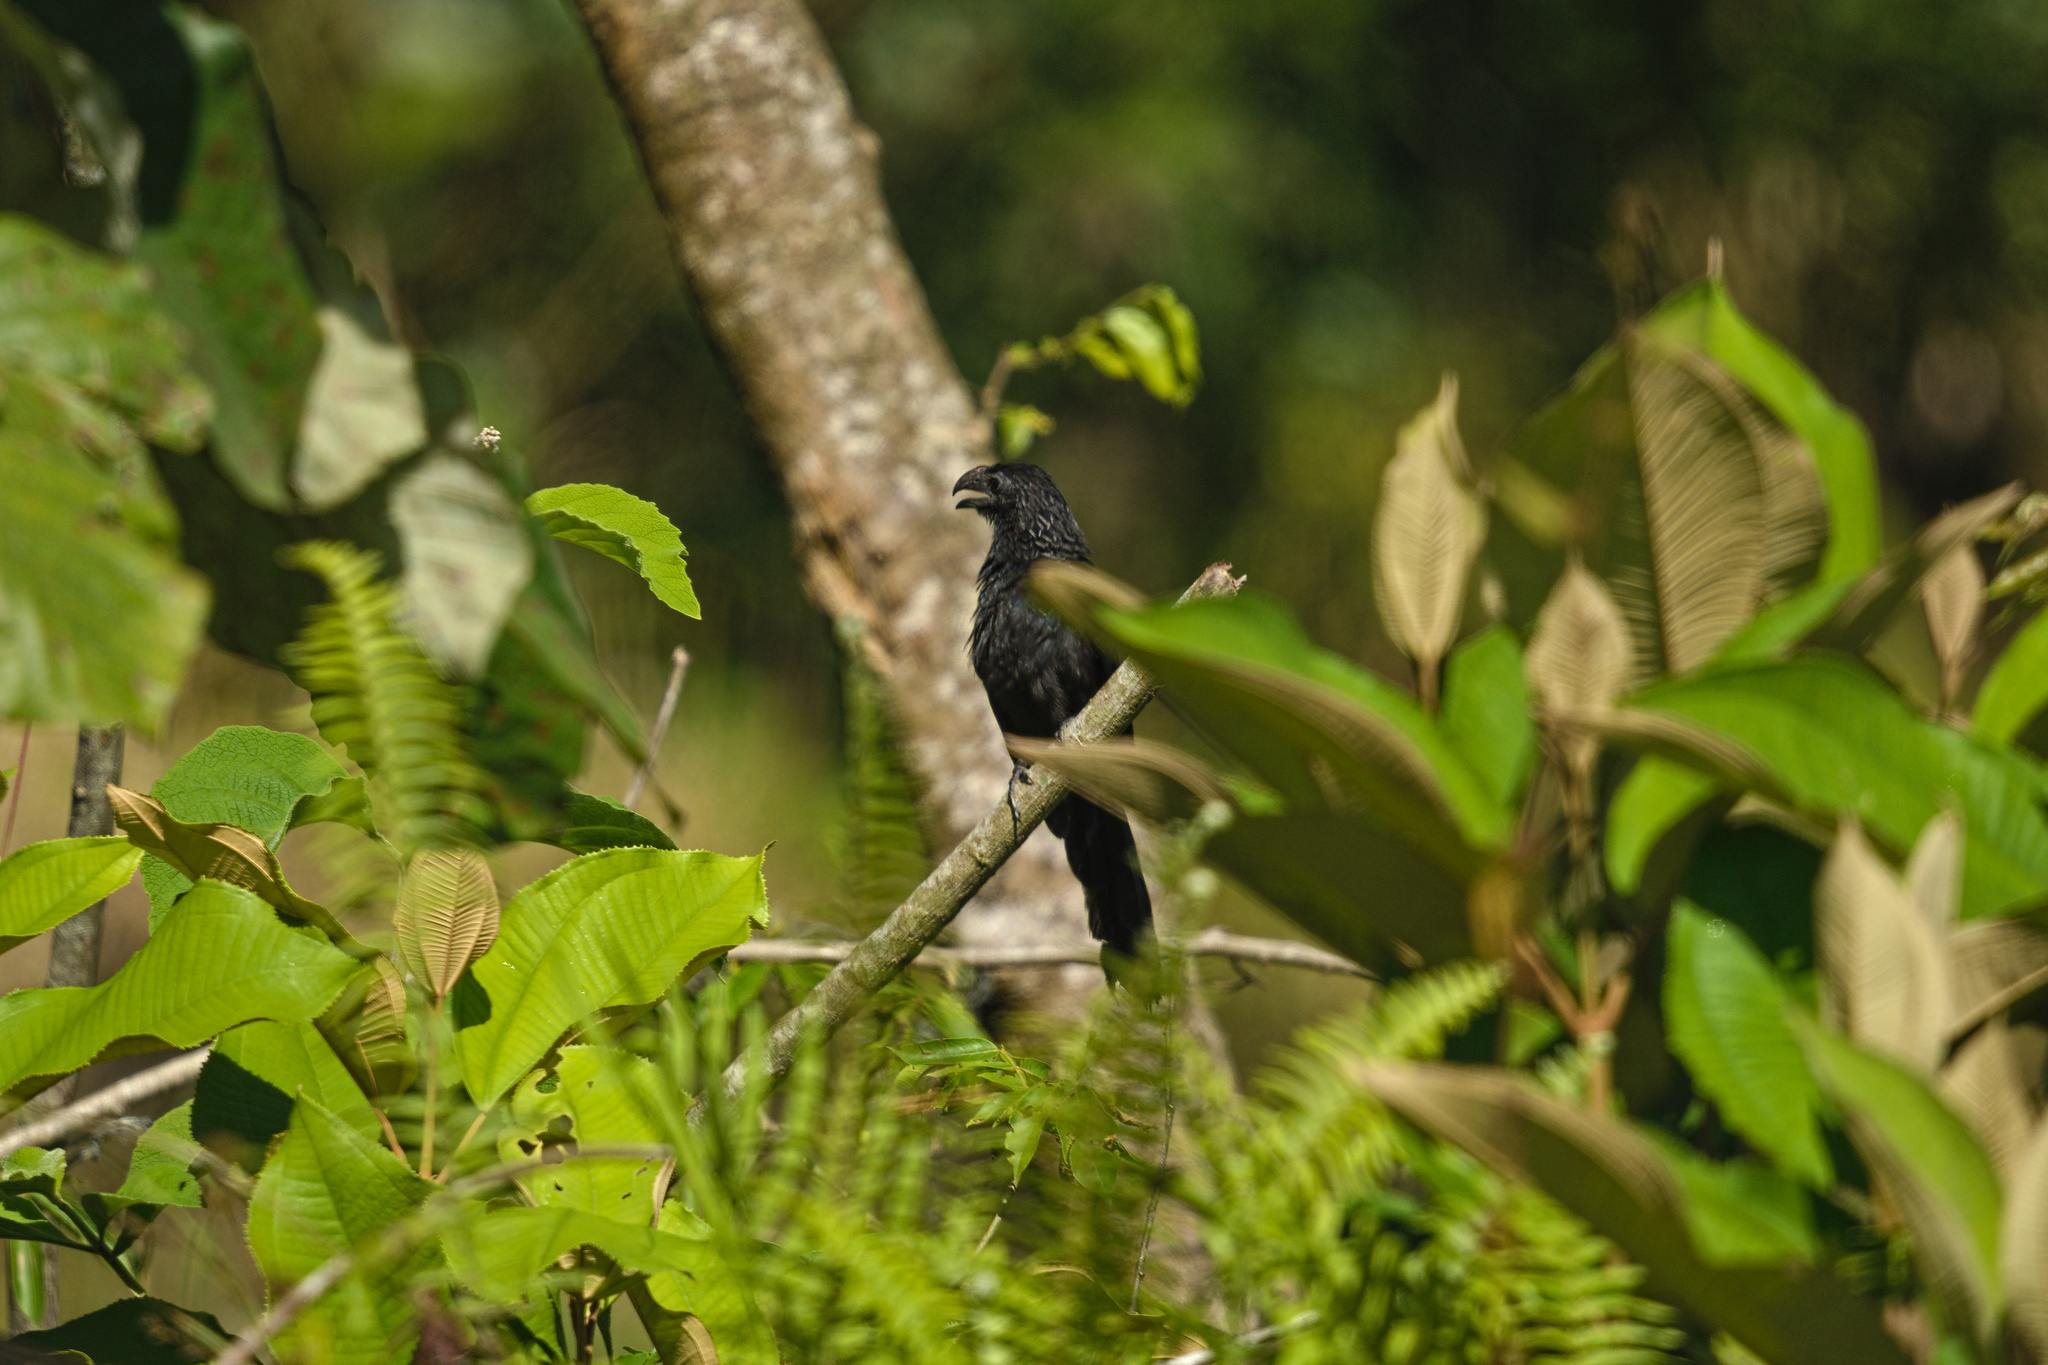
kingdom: Animalia
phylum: Chordata
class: Aves
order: Cuculiformes
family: Cuculidae
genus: Crotophaga
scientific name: Crotophaga sulcirostris
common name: Groove-billed ani
